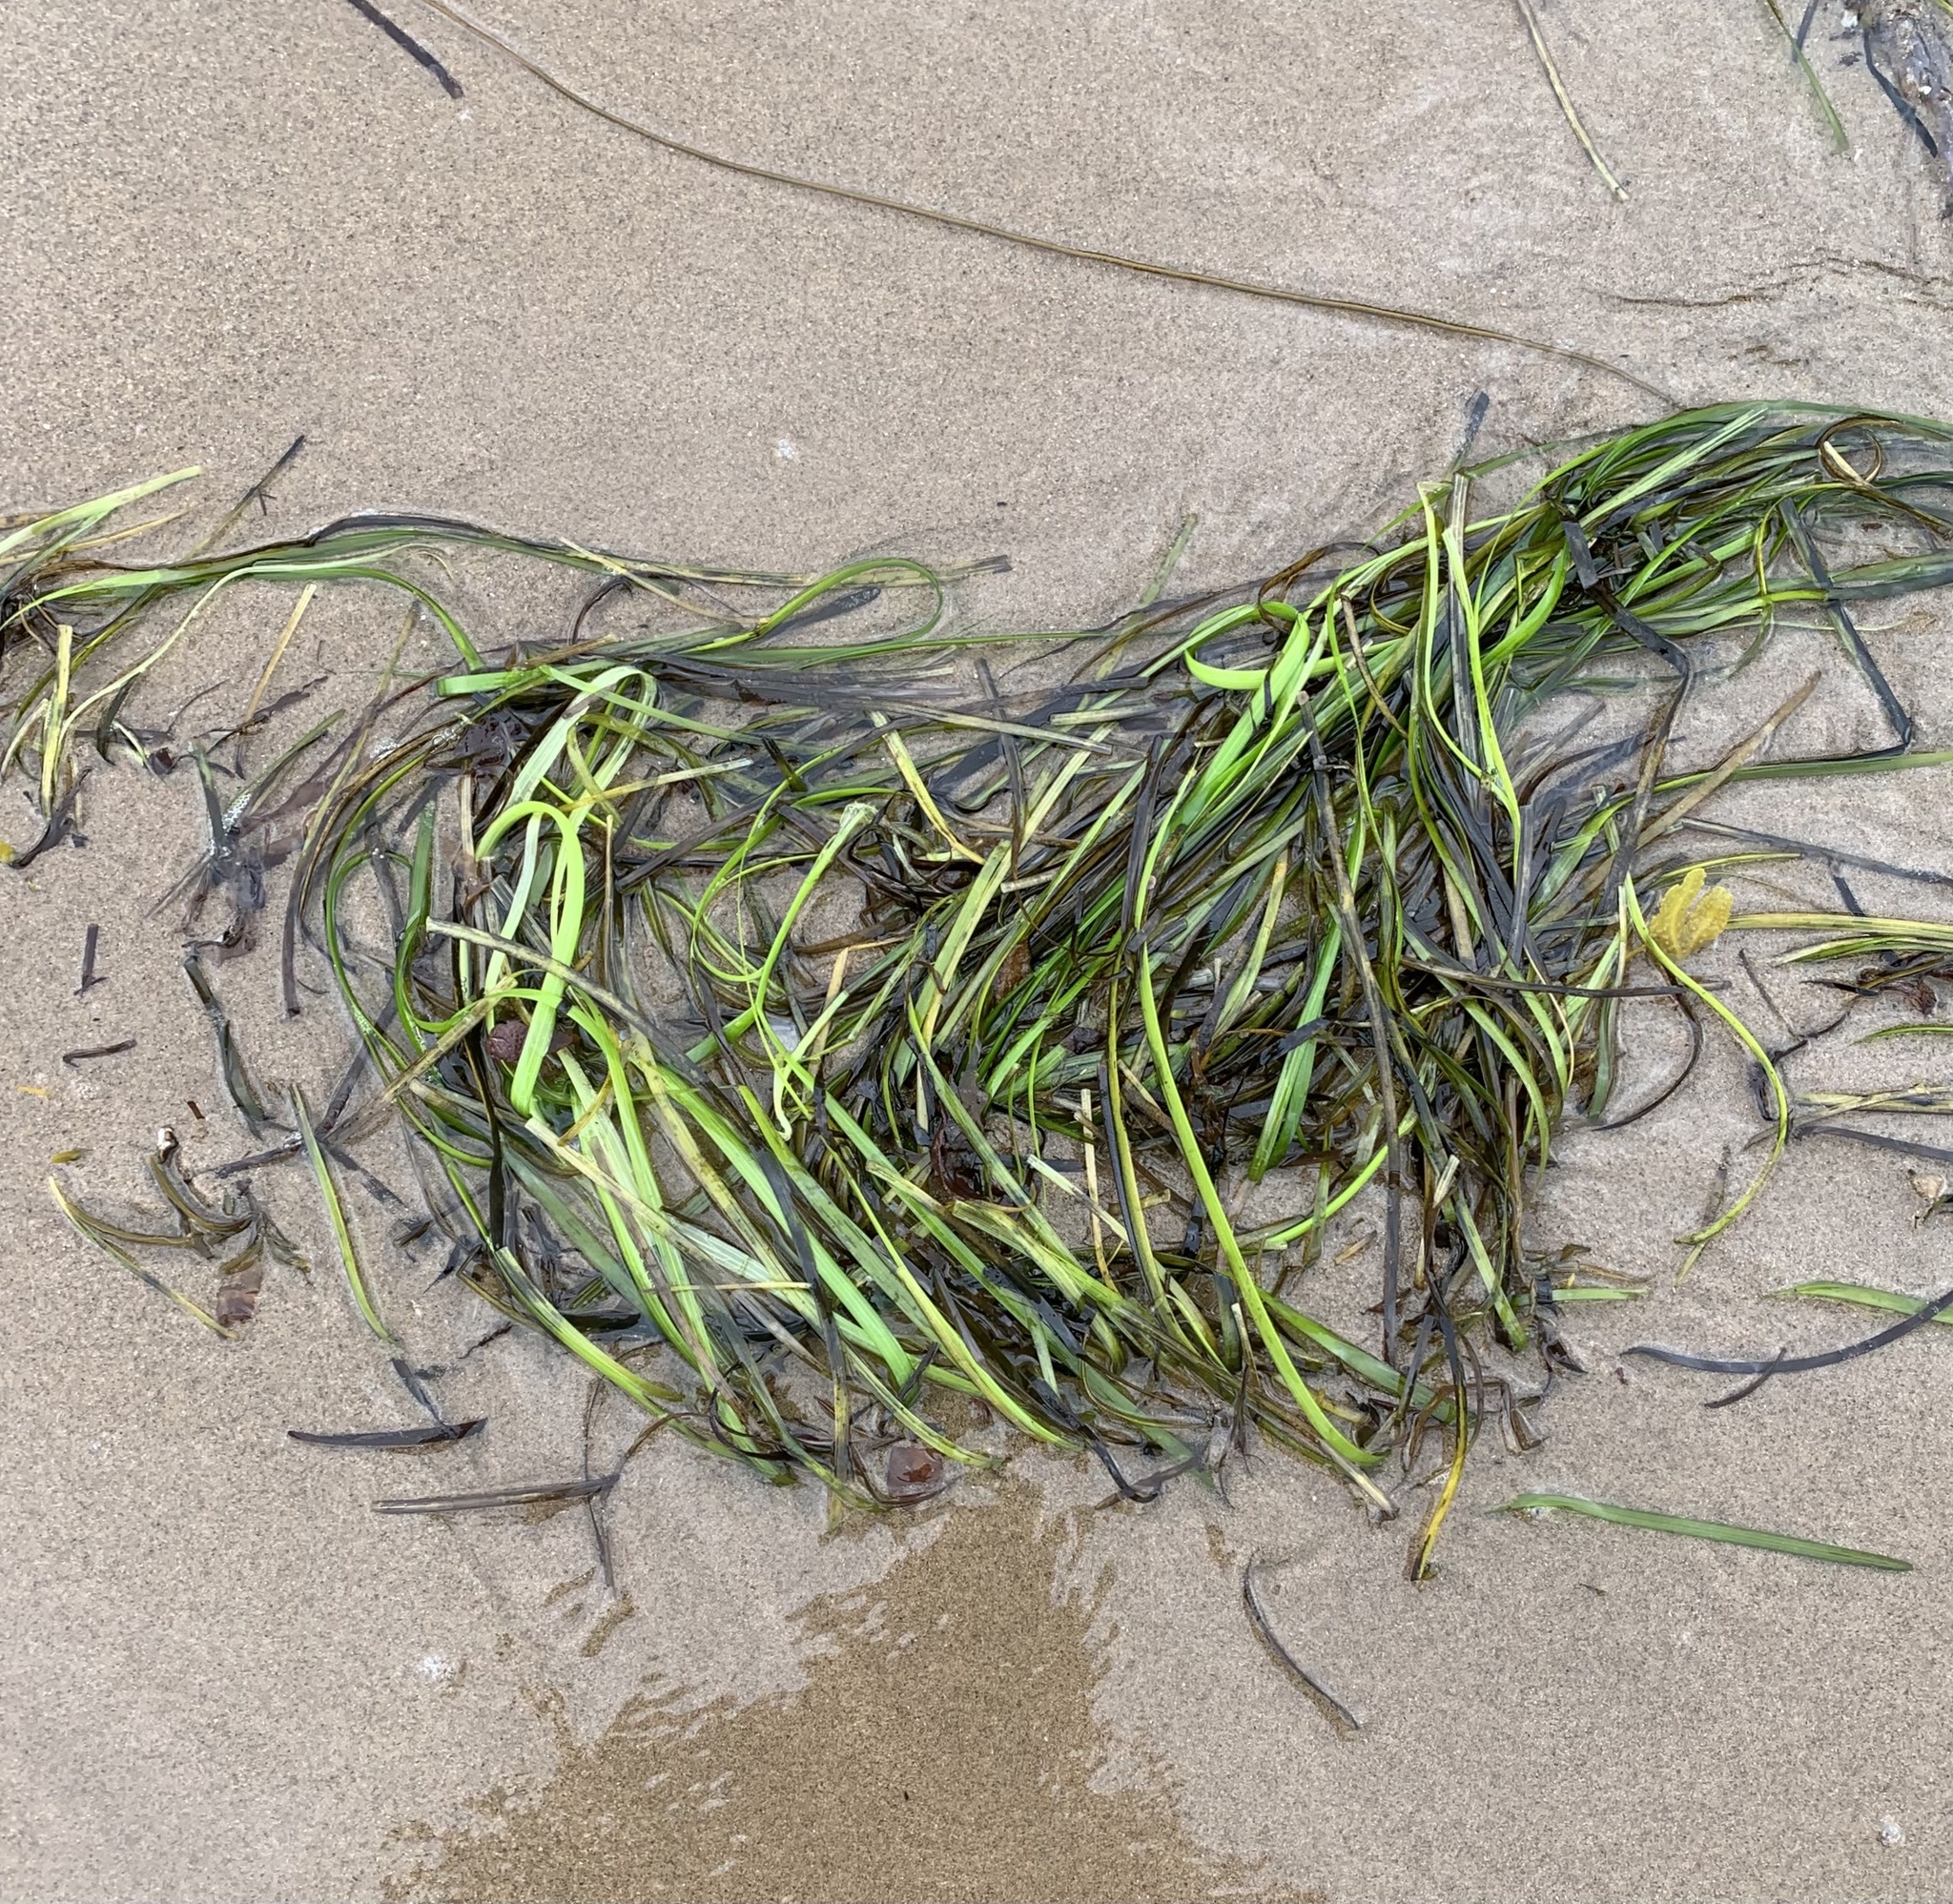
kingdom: Plantae
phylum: Tracheophyta
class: Liliopsida
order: Alismatales
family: Zosteraceae
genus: Zostera
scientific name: Zostera marina
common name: Eelgrass
